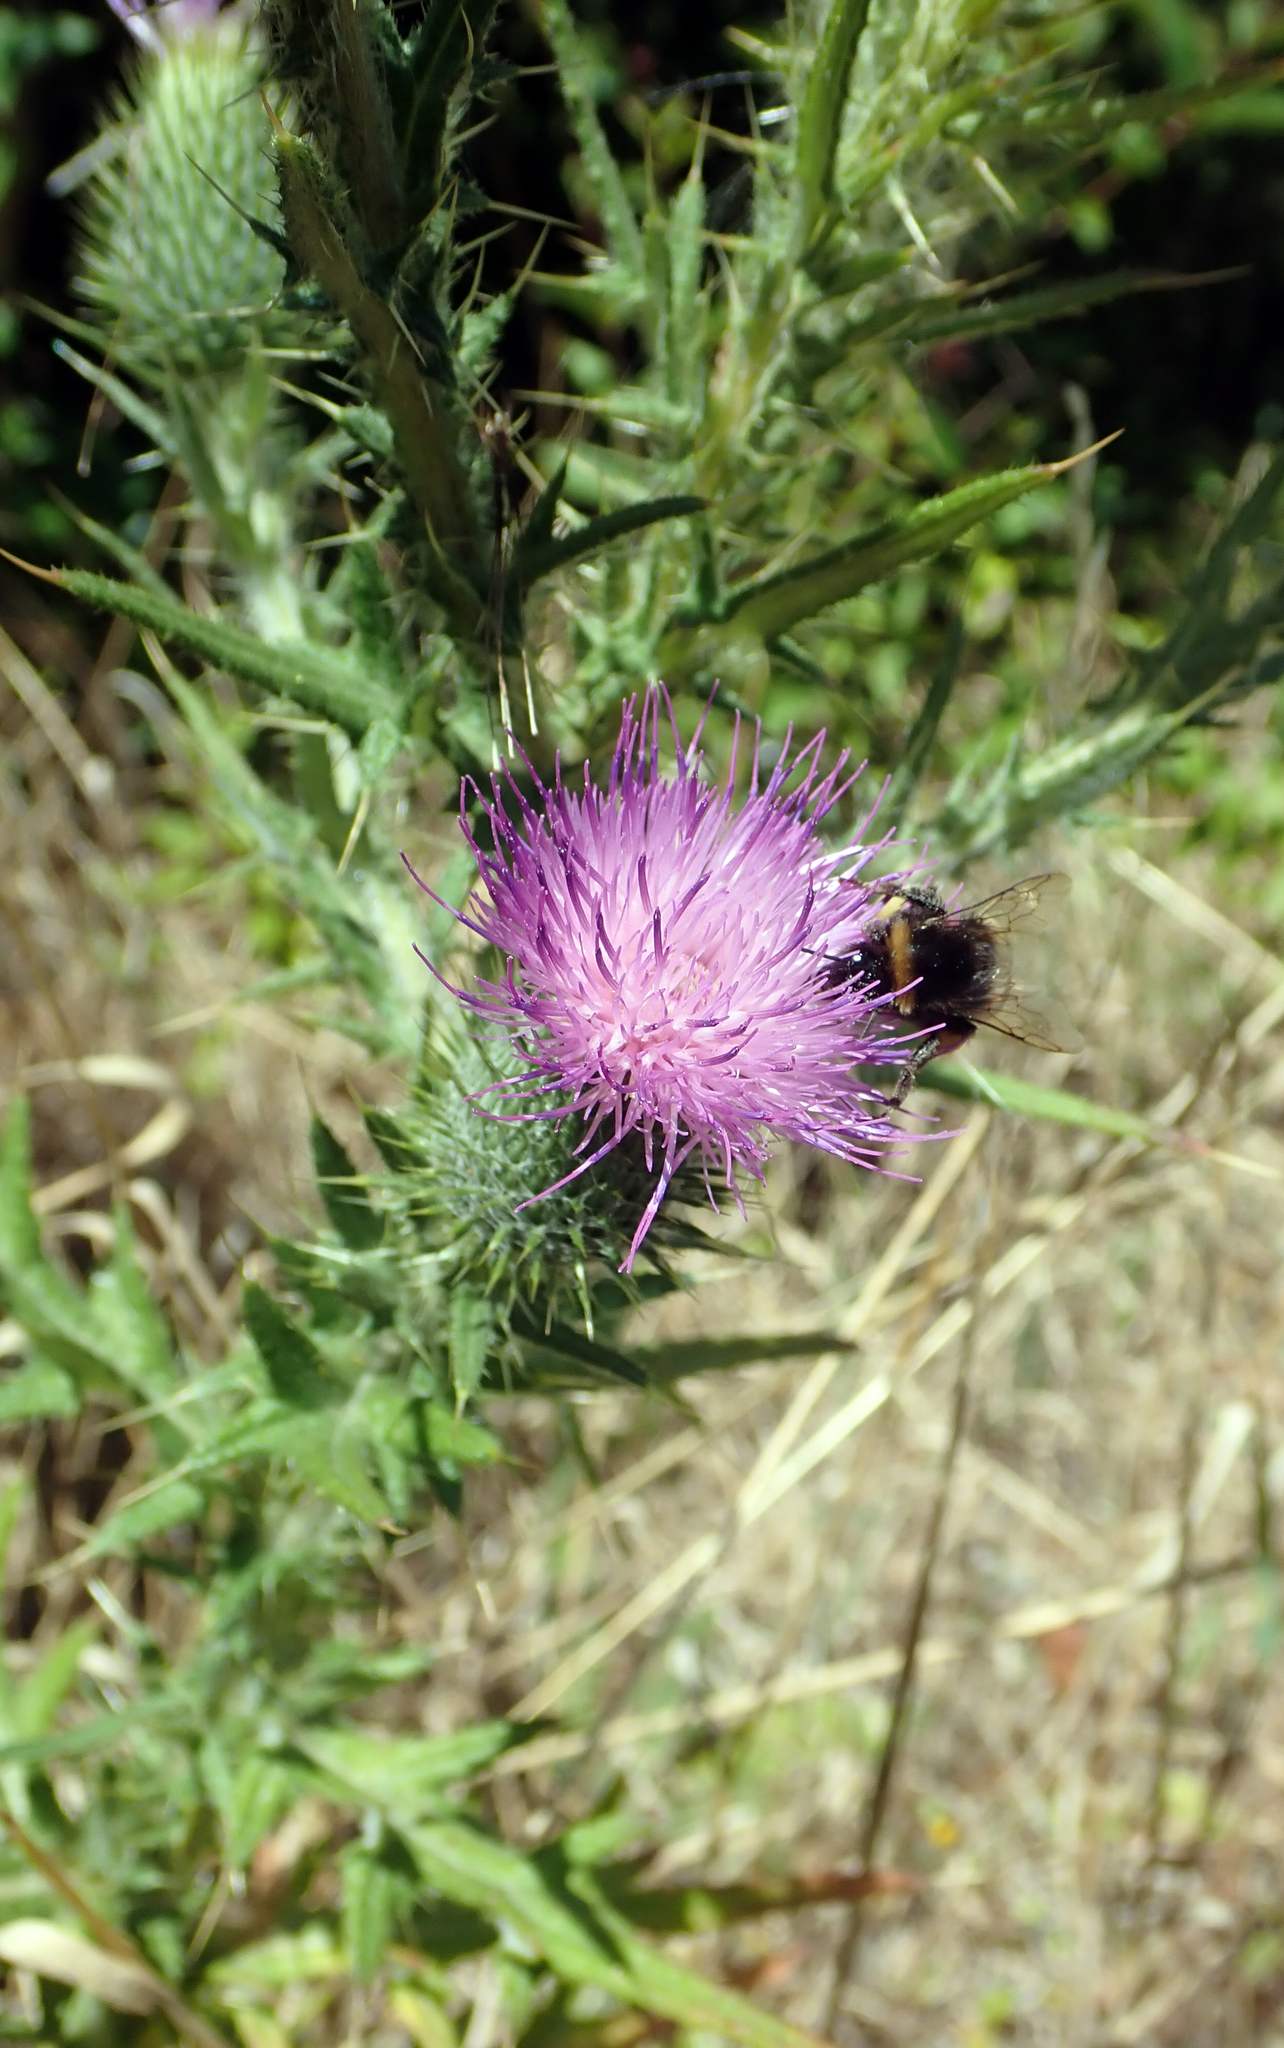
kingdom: Animalia
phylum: Arthropoda
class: Insecta
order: Hymenoptera
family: Apidae
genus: Bombus
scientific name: Bombus terrestris
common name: Buff-tailed bumblebee
